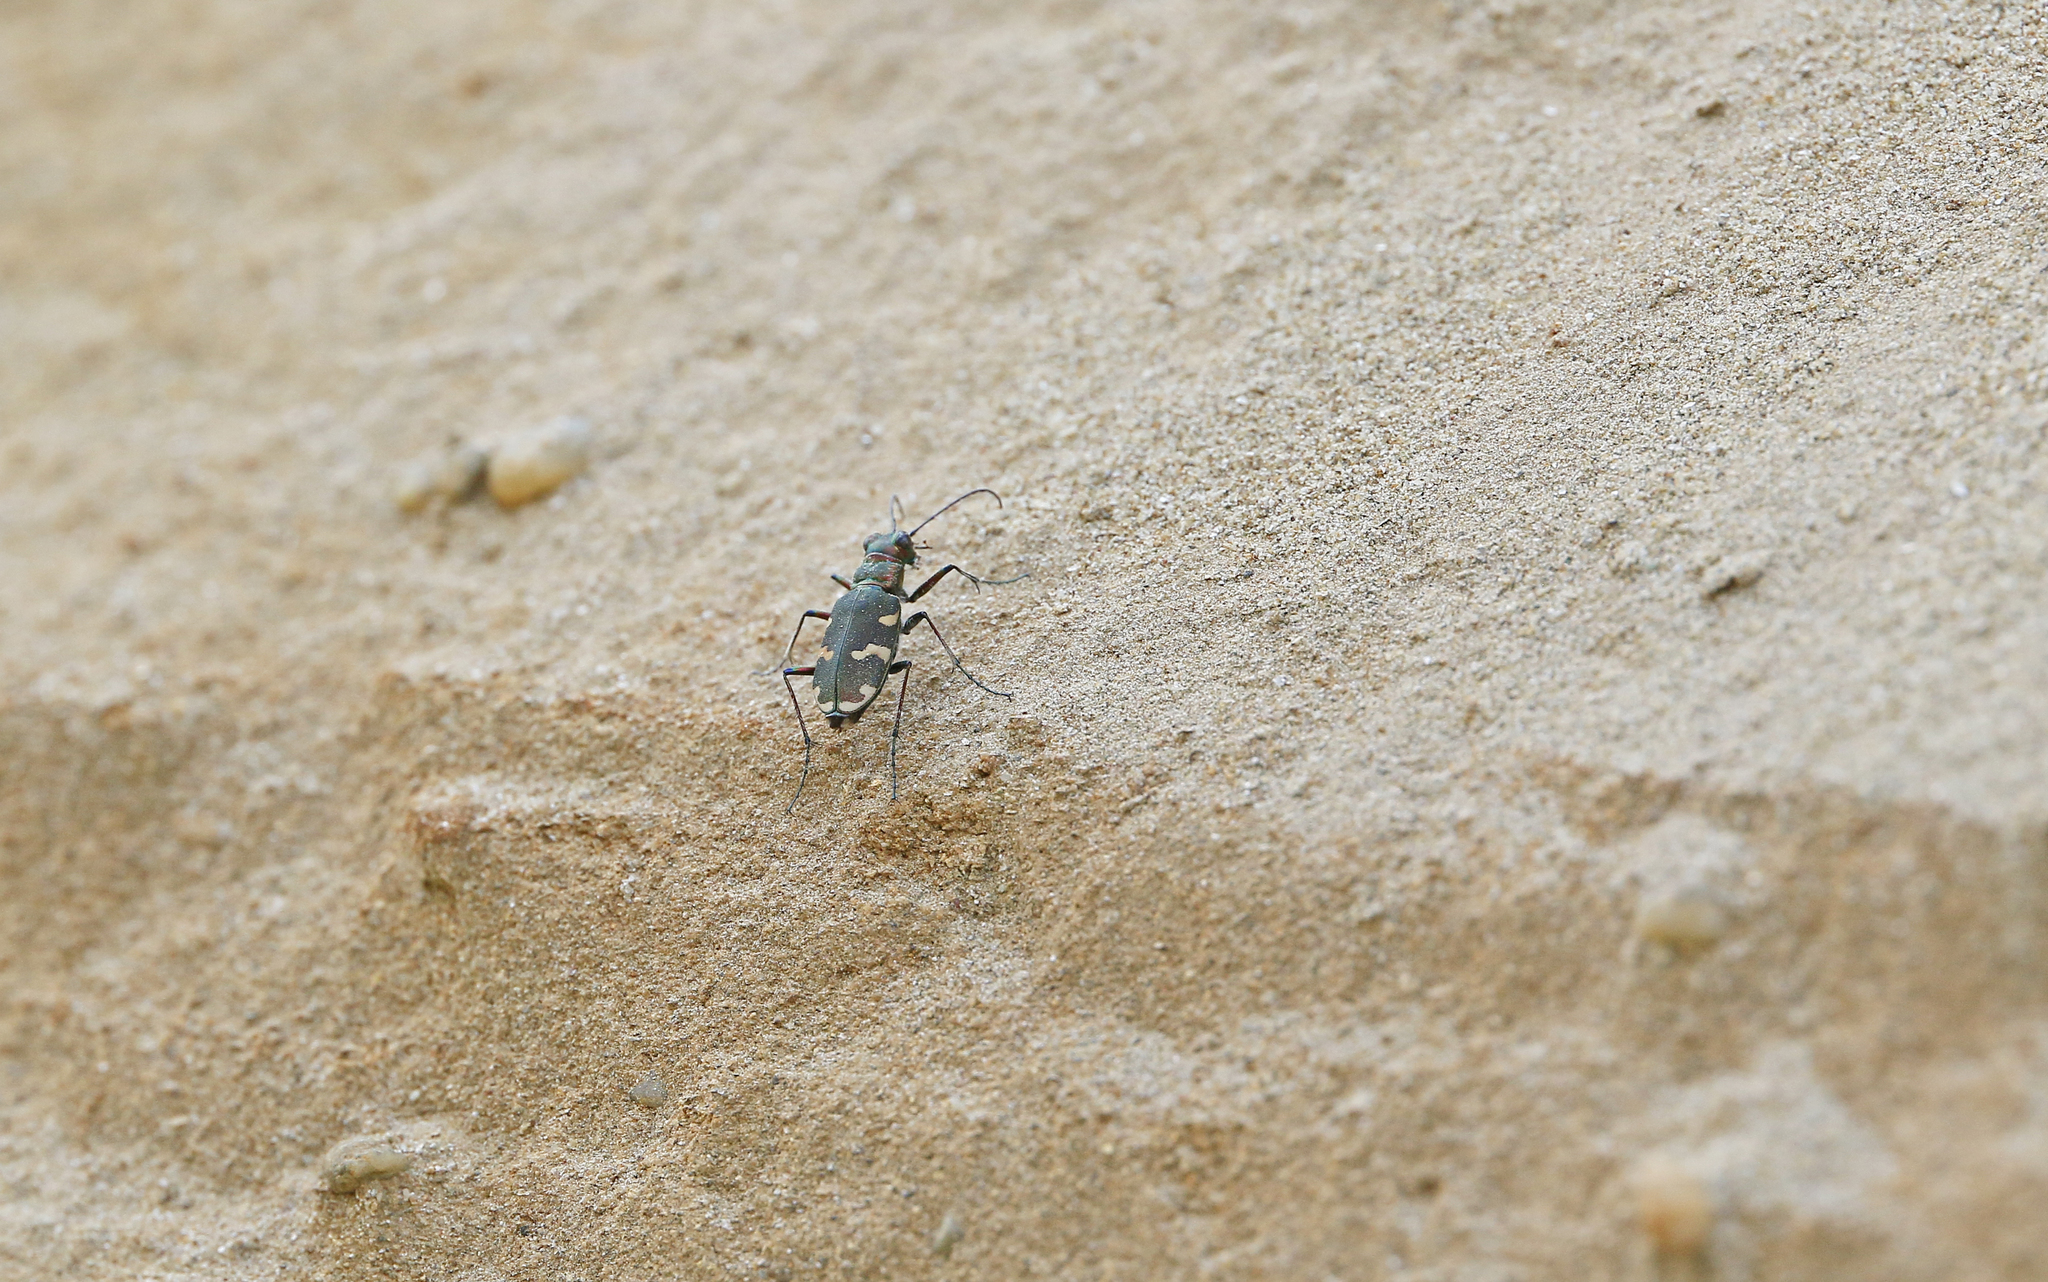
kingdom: Animalia
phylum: Arthropoda
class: Insecta
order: Coleoptera
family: Carabidae
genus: Cicindela
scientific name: Cicindela hybrida
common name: Northern dune tiger beetle
